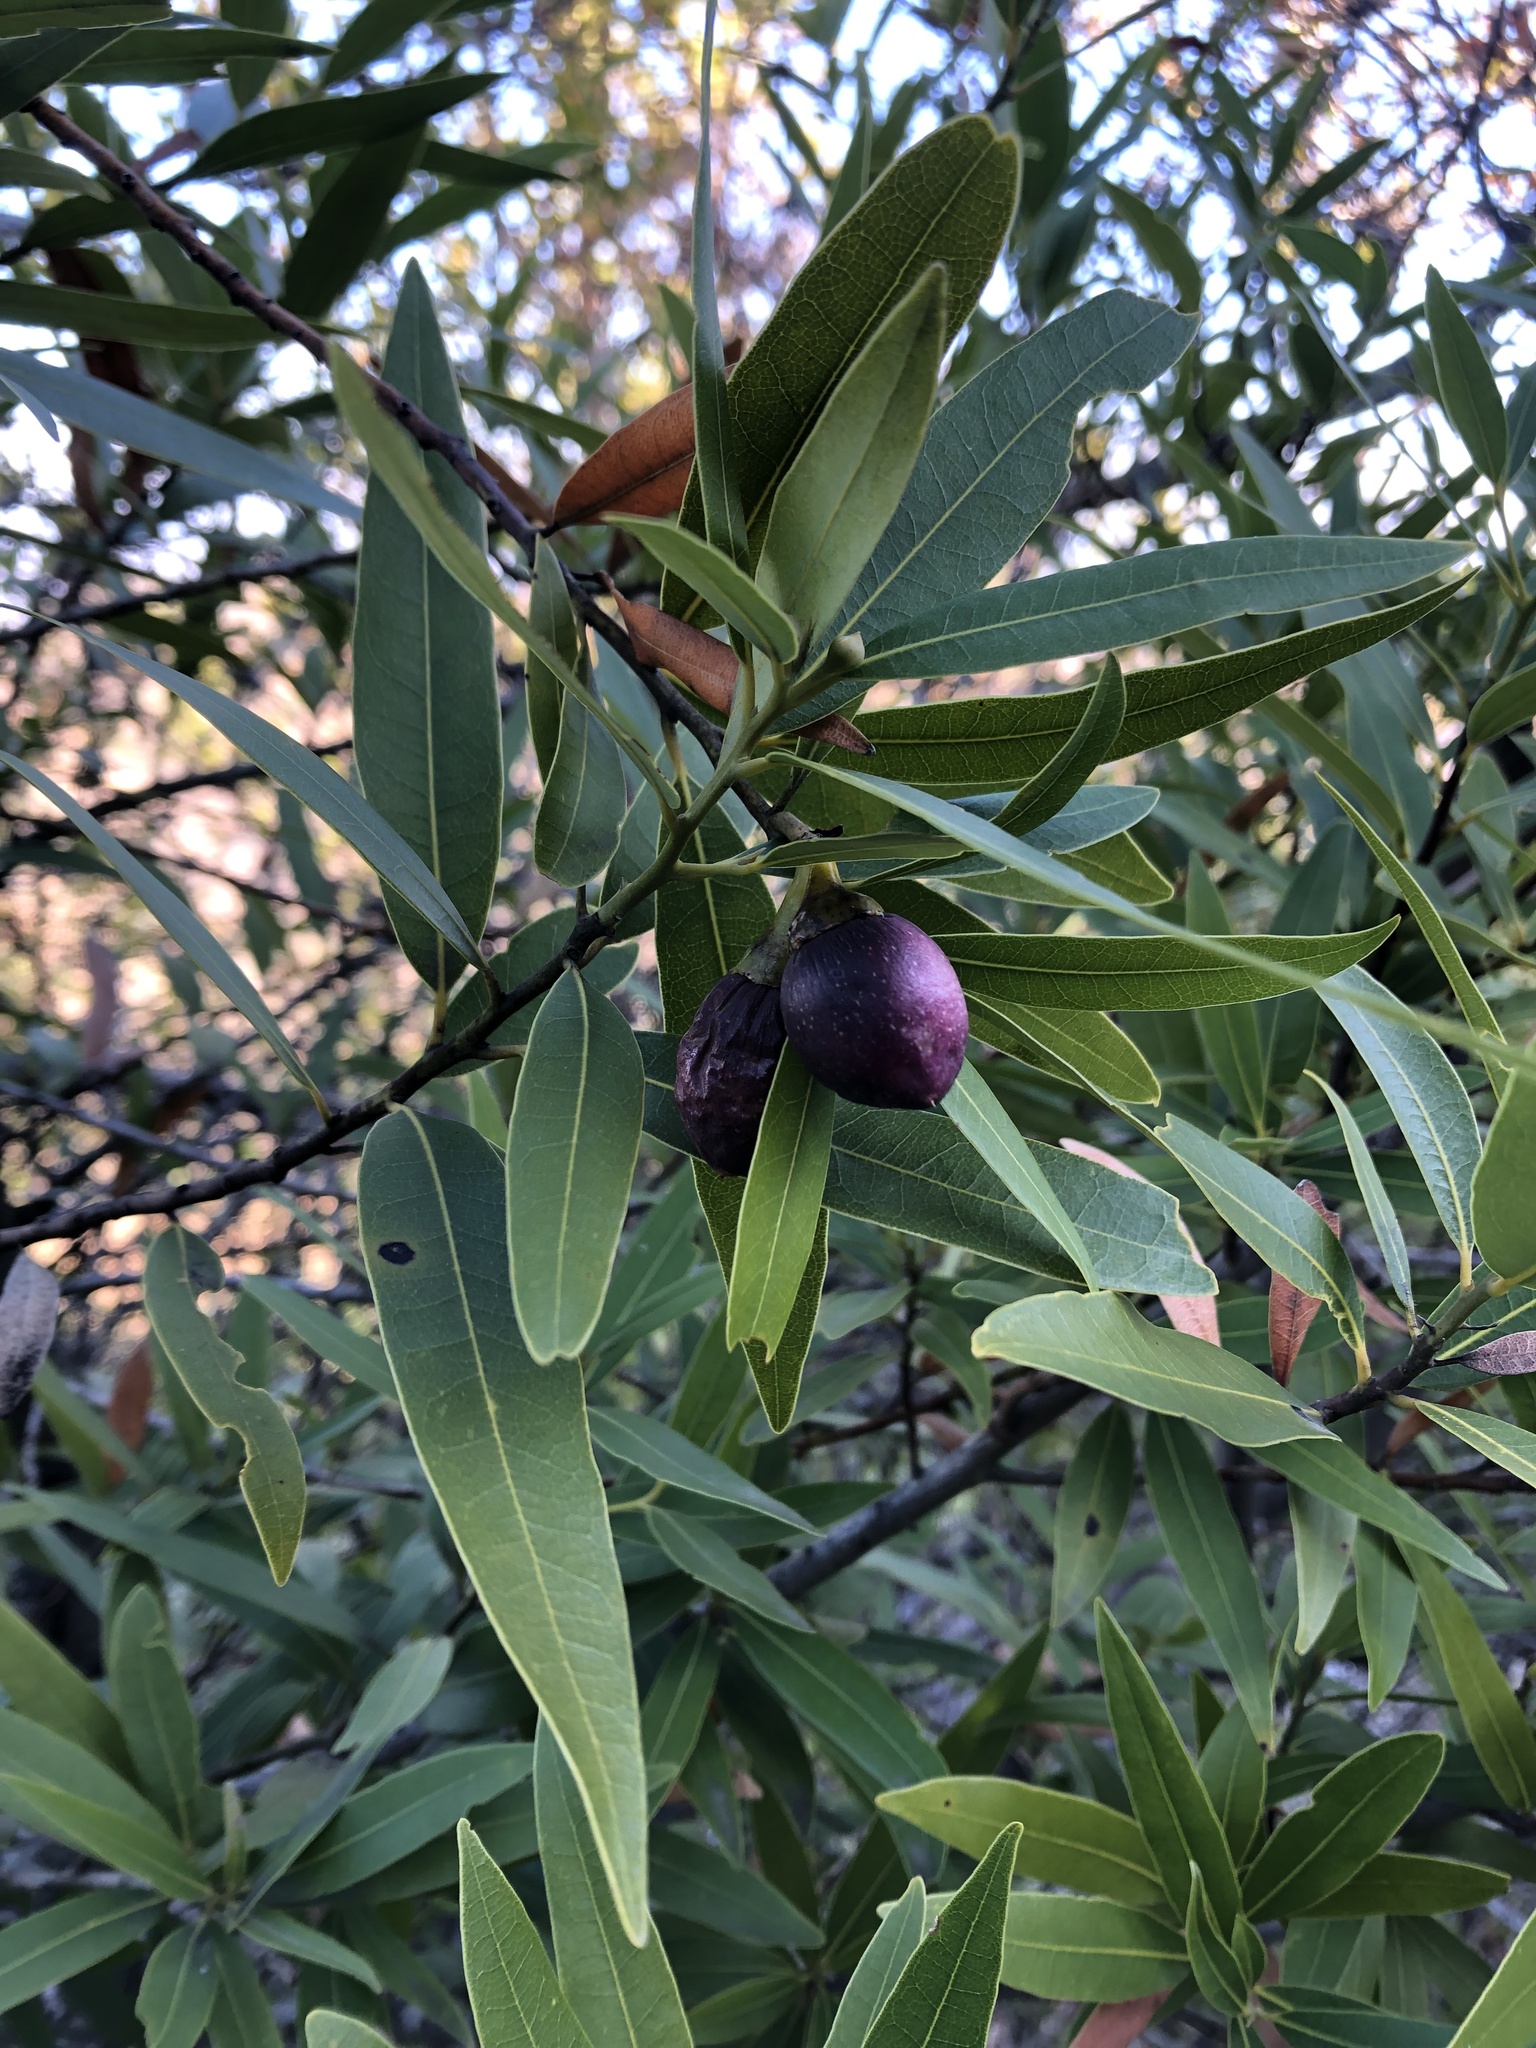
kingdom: Plantae
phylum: Tracheophyta
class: Magnoliopsida
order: Laurales
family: Lauraceae
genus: Umbellularia
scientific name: Umbellularia californica
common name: California bay
